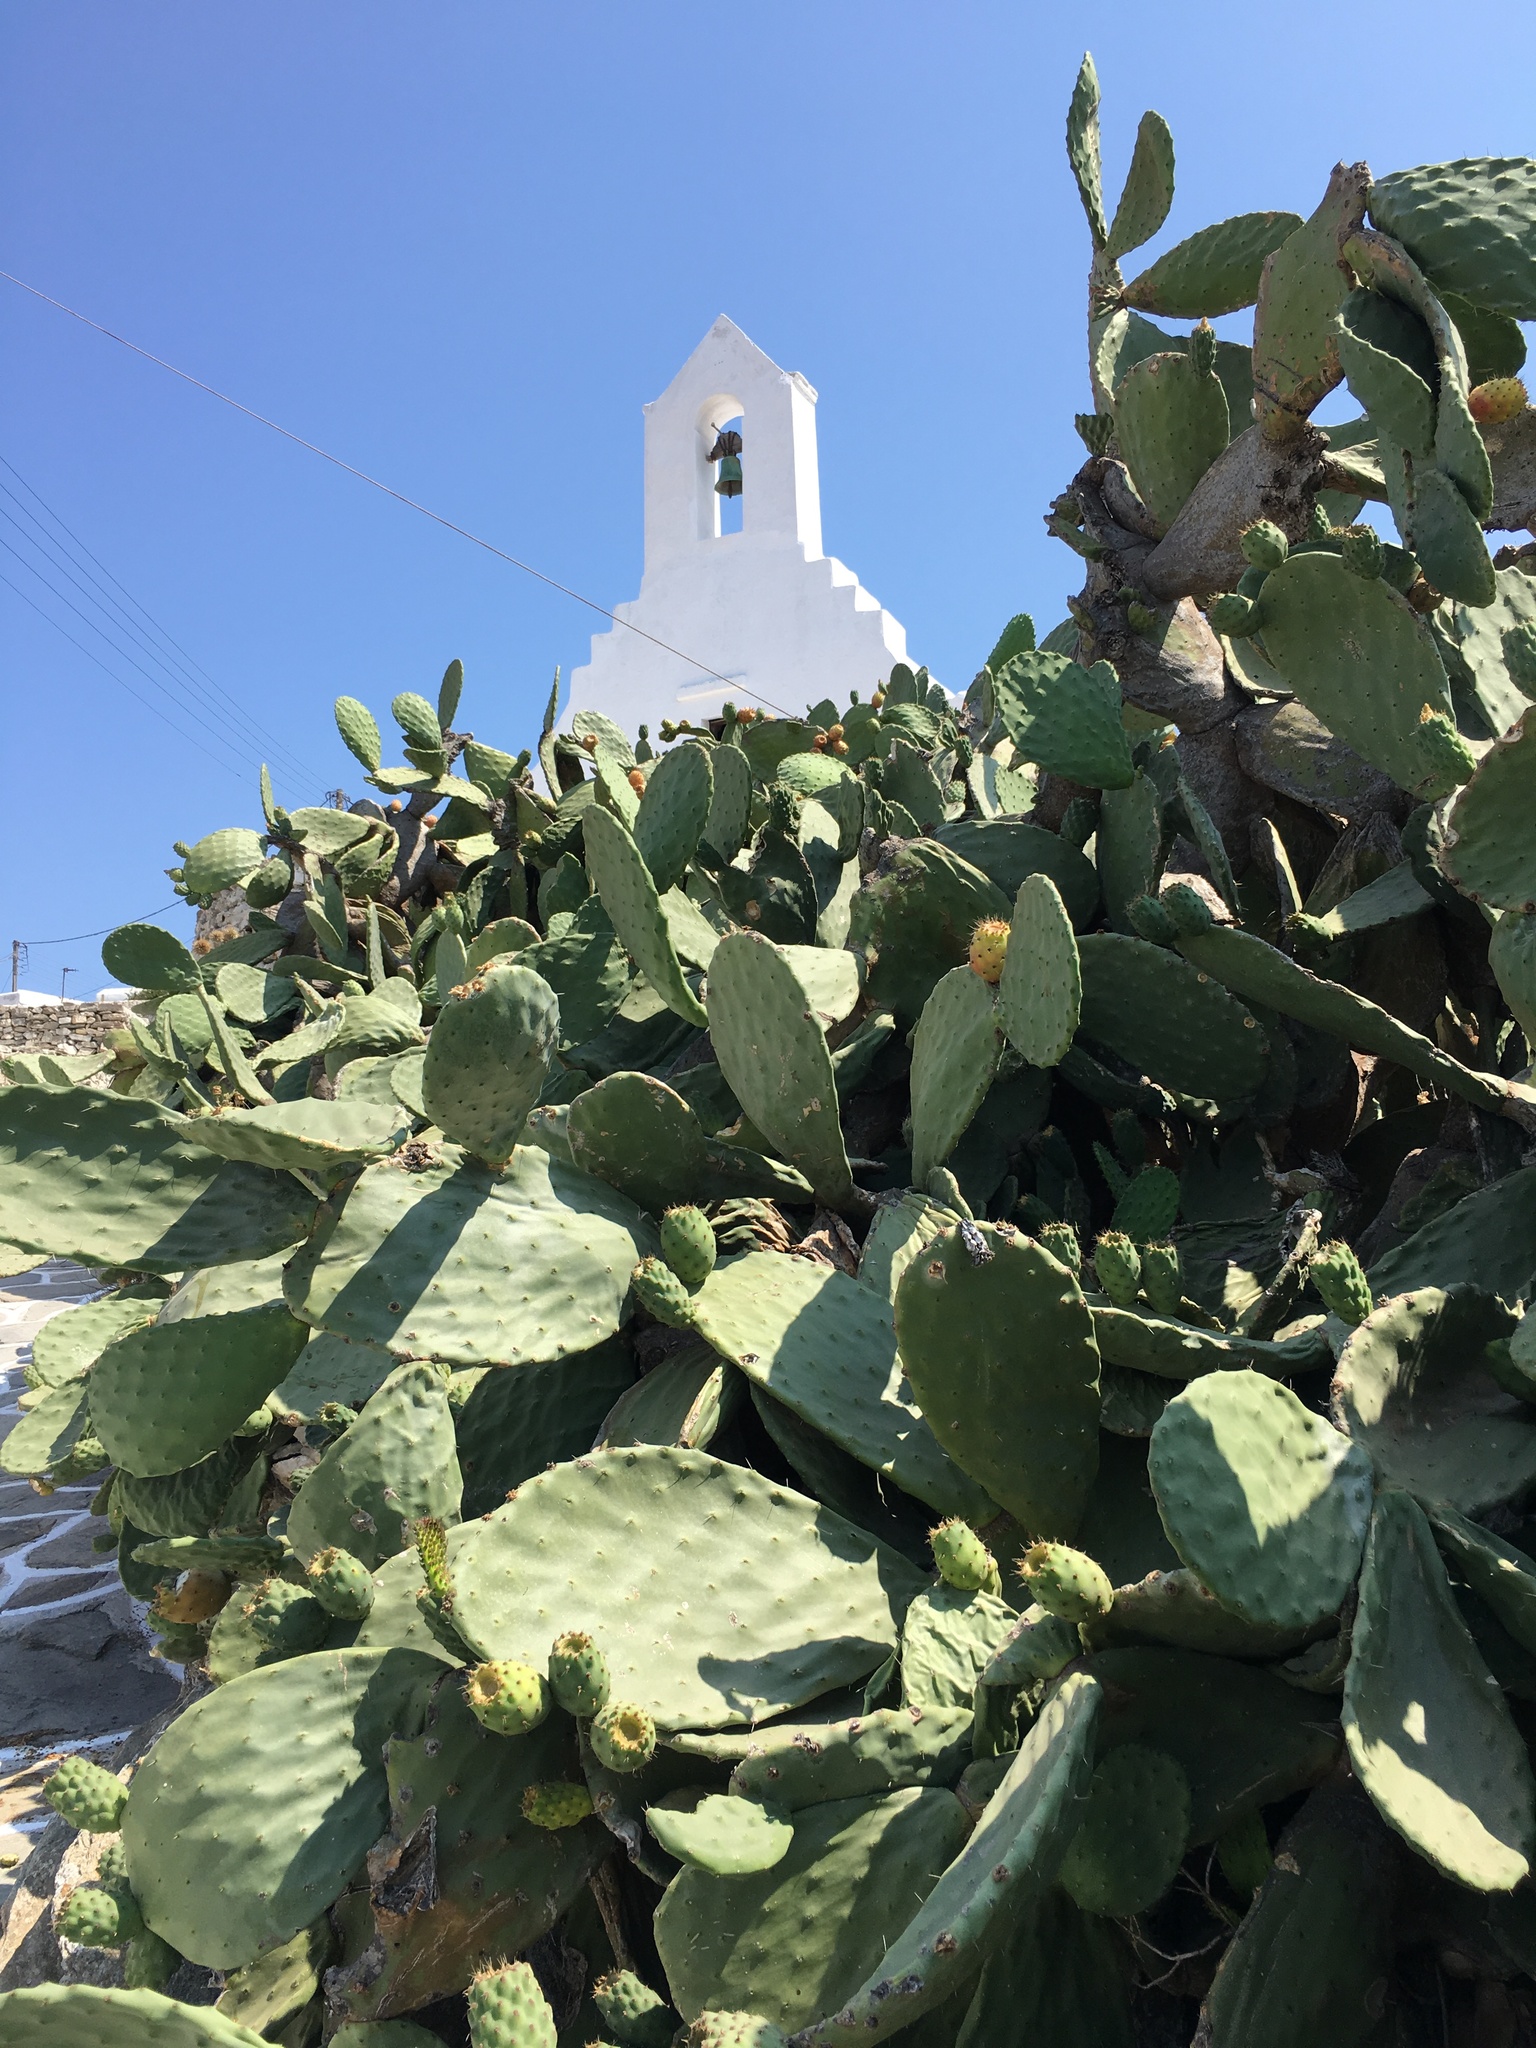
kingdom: Plantae
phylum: Tracheophyta
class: Magnoliopsida
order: Caryophyllales
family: Cactaceae
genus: Opuntia
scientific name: Opuntia ficus-indica
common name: Barbary fig
